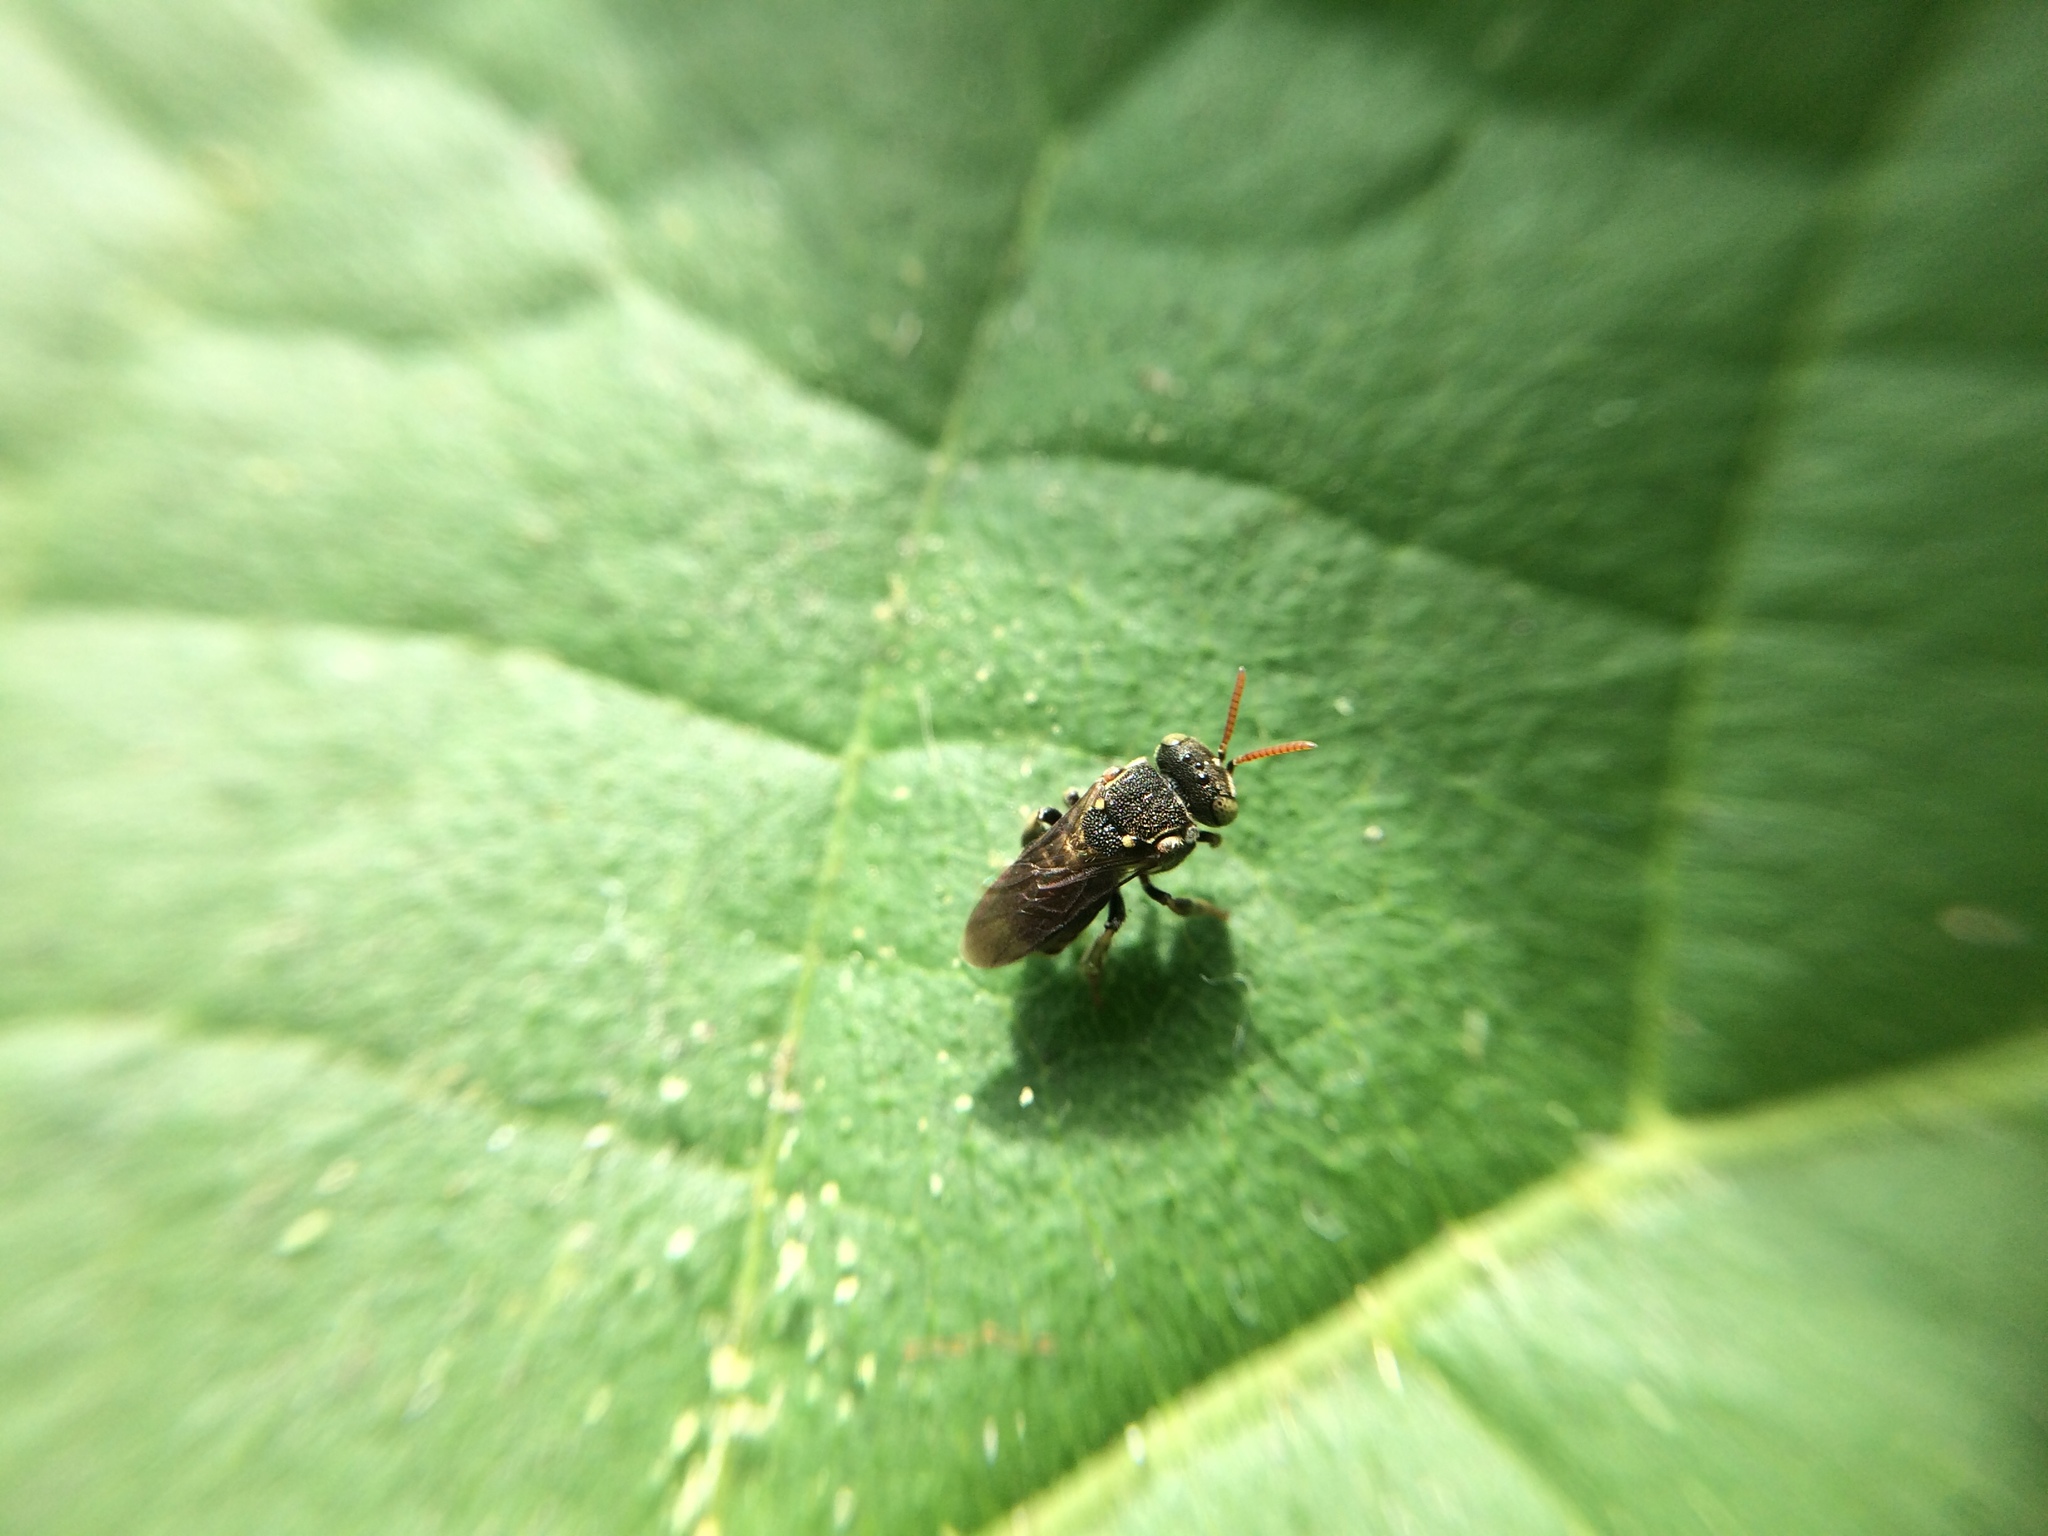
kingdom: Animalia
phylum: Arthropoda
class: Insecta
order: Hymenoptera
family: Apidae
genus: Nannotrigona
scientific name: Nannotrigona perilampoides
